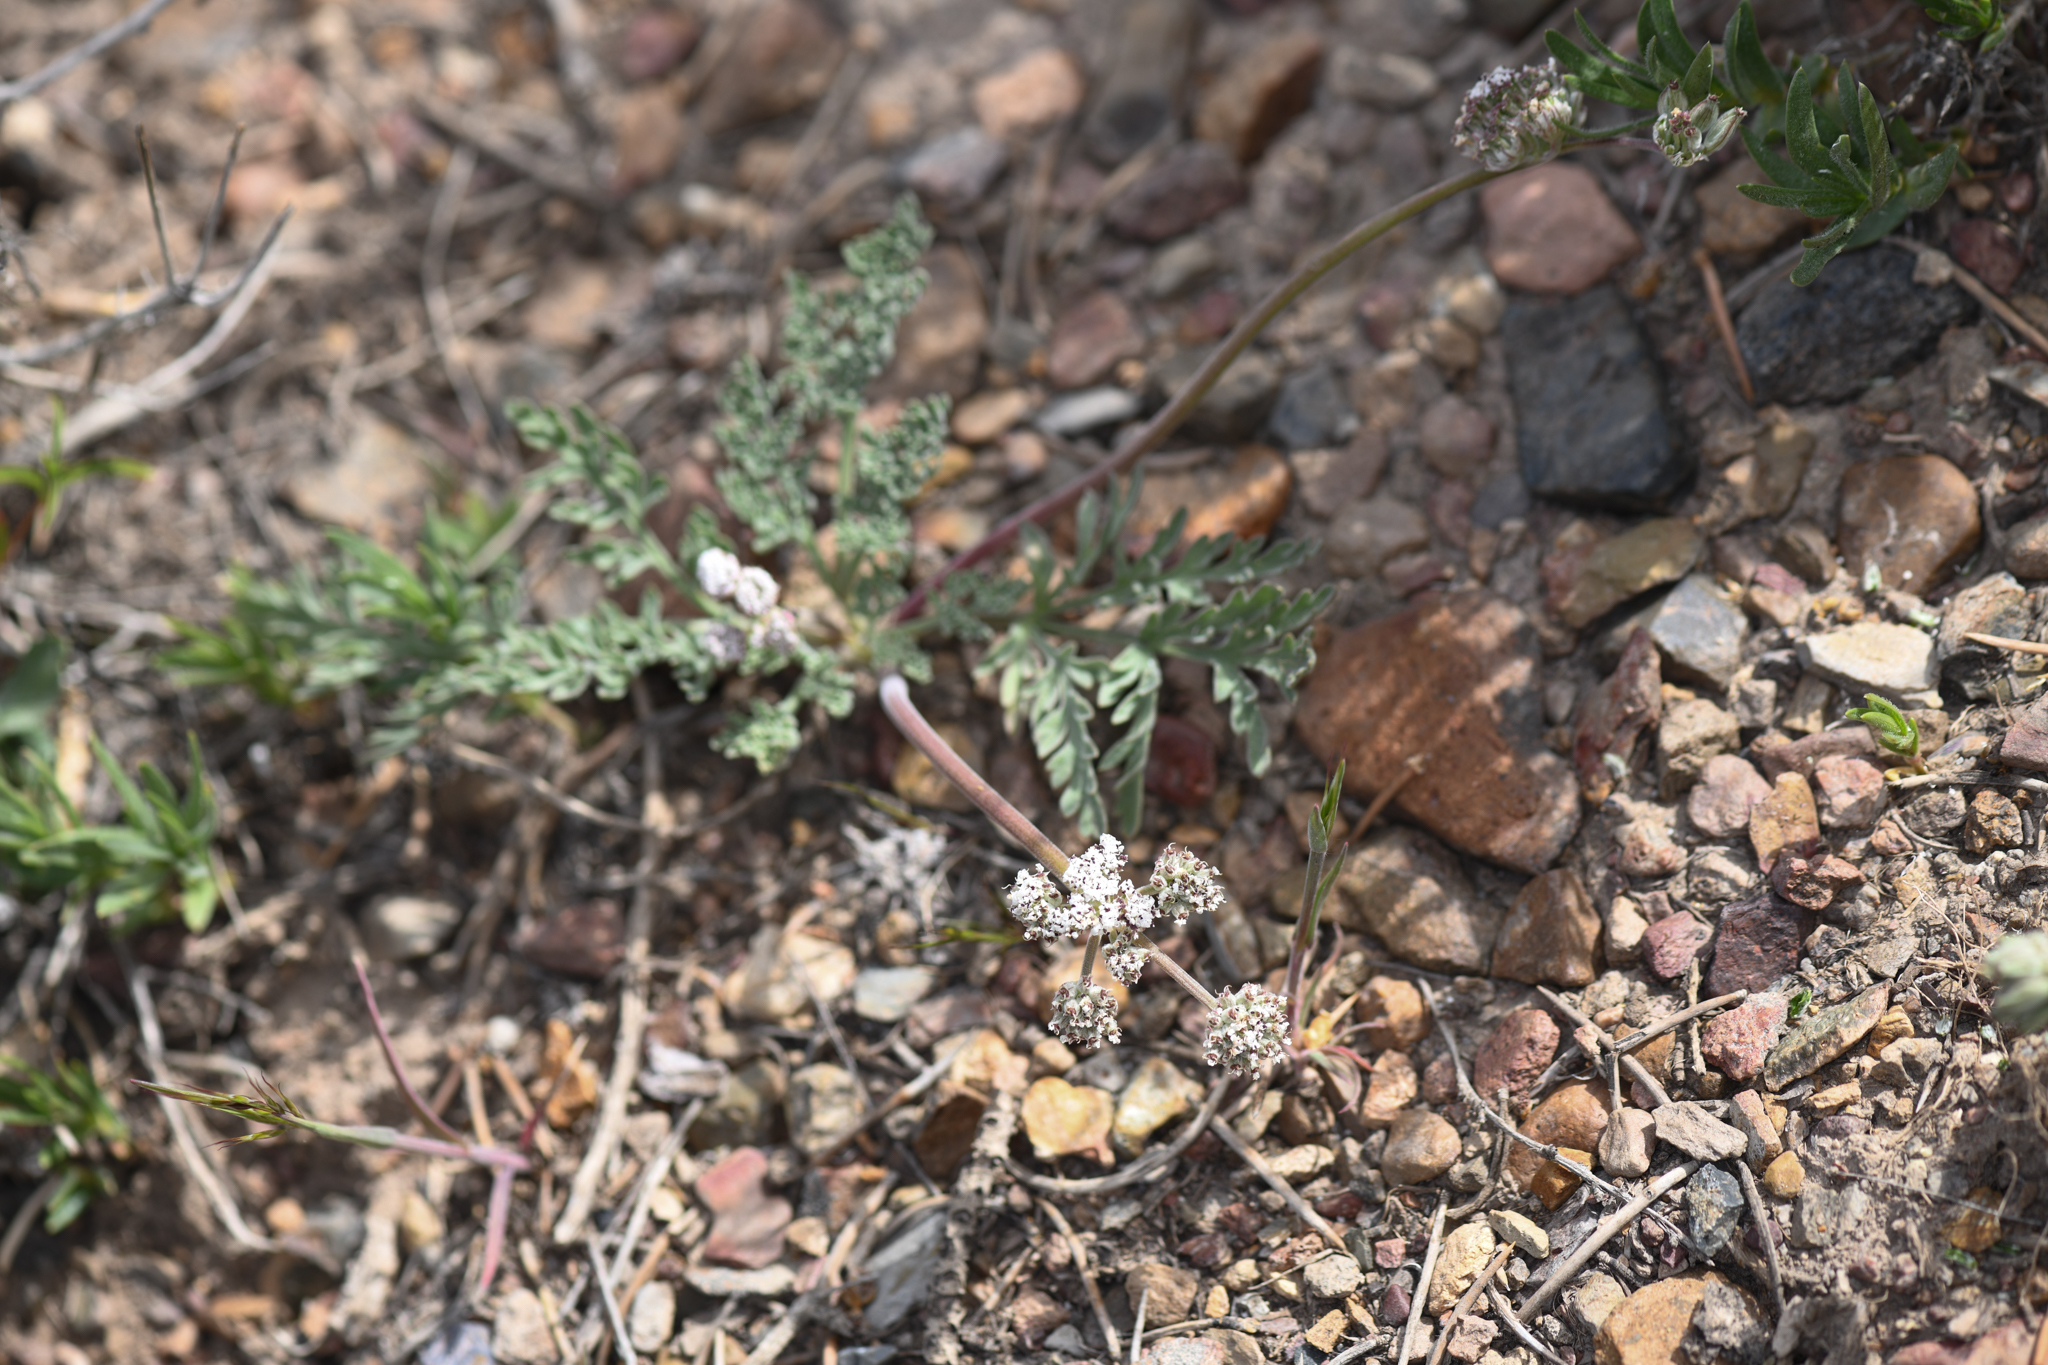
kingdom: Plantae
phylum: Tracheophyta
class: Magnoliopsida
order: Apiales
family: Apiaceae
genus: Lomatium
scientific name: Lomatium nevadense
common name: Nevada lomatium
